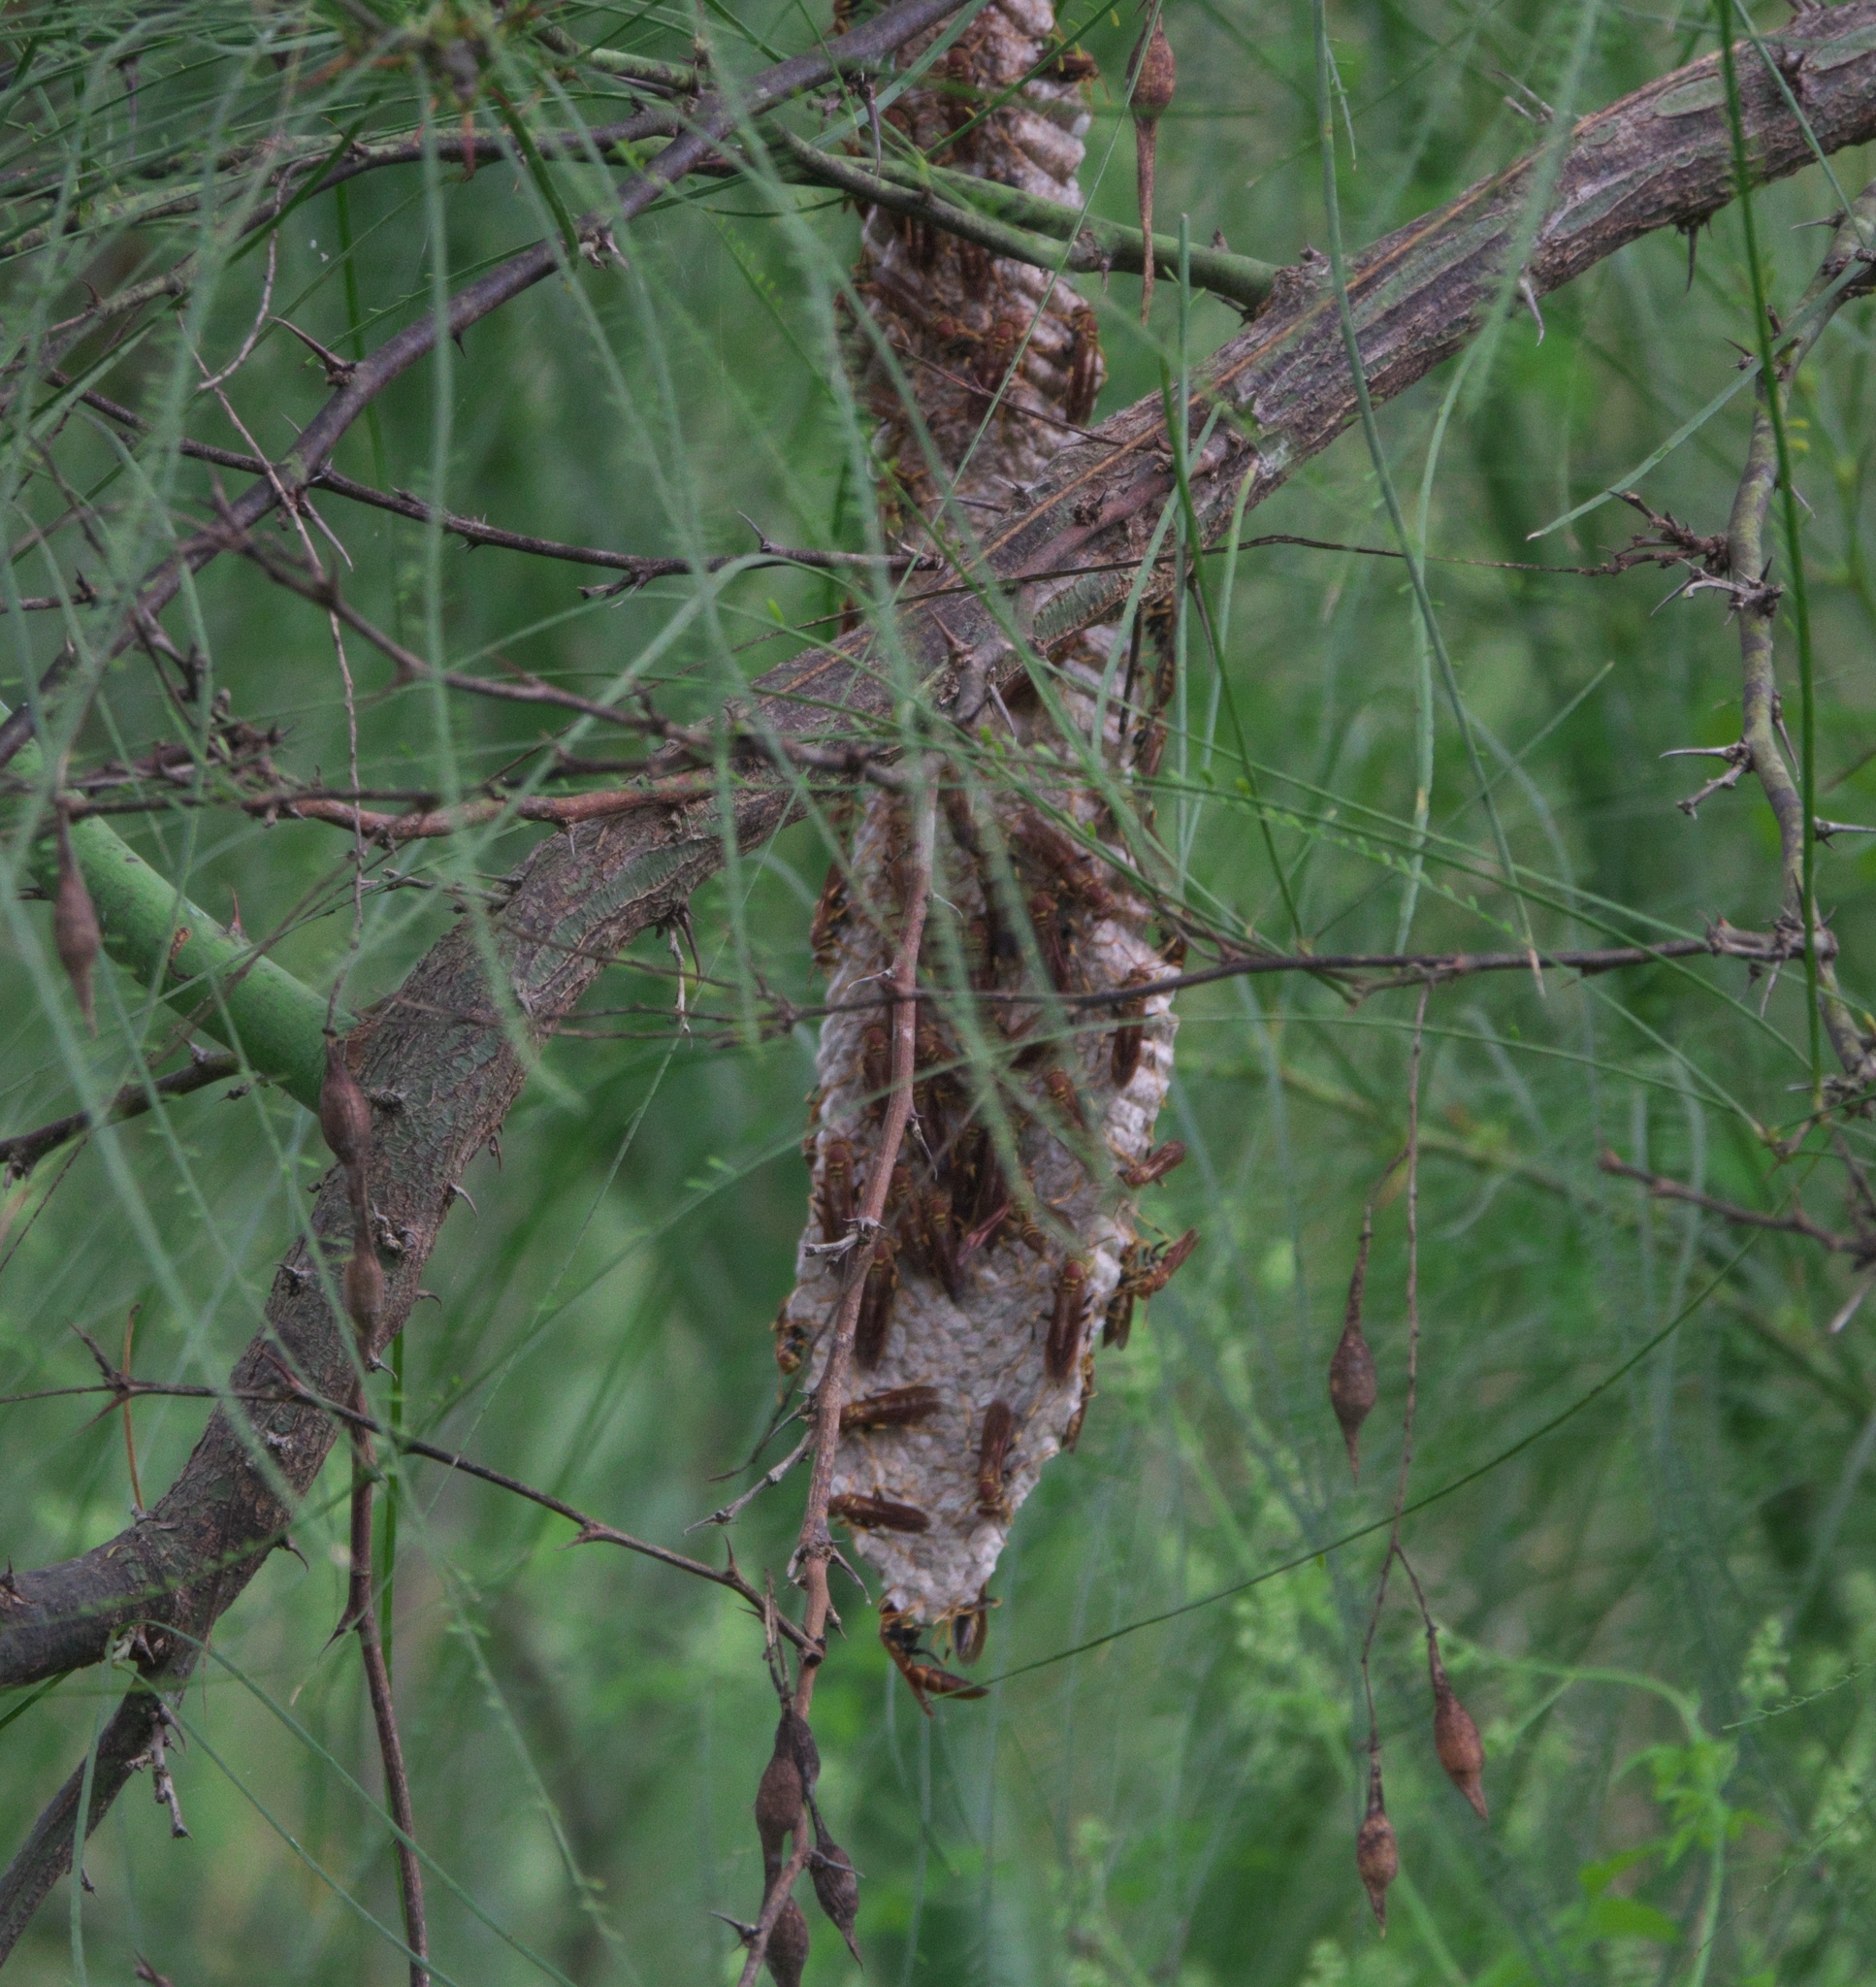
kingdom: Animalia
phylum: Arthropoda
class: Insecta
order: Hymenoptera
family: Eumenidae
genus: Polistes
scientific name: Polistes instabilis
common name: Unstable paper wasp
